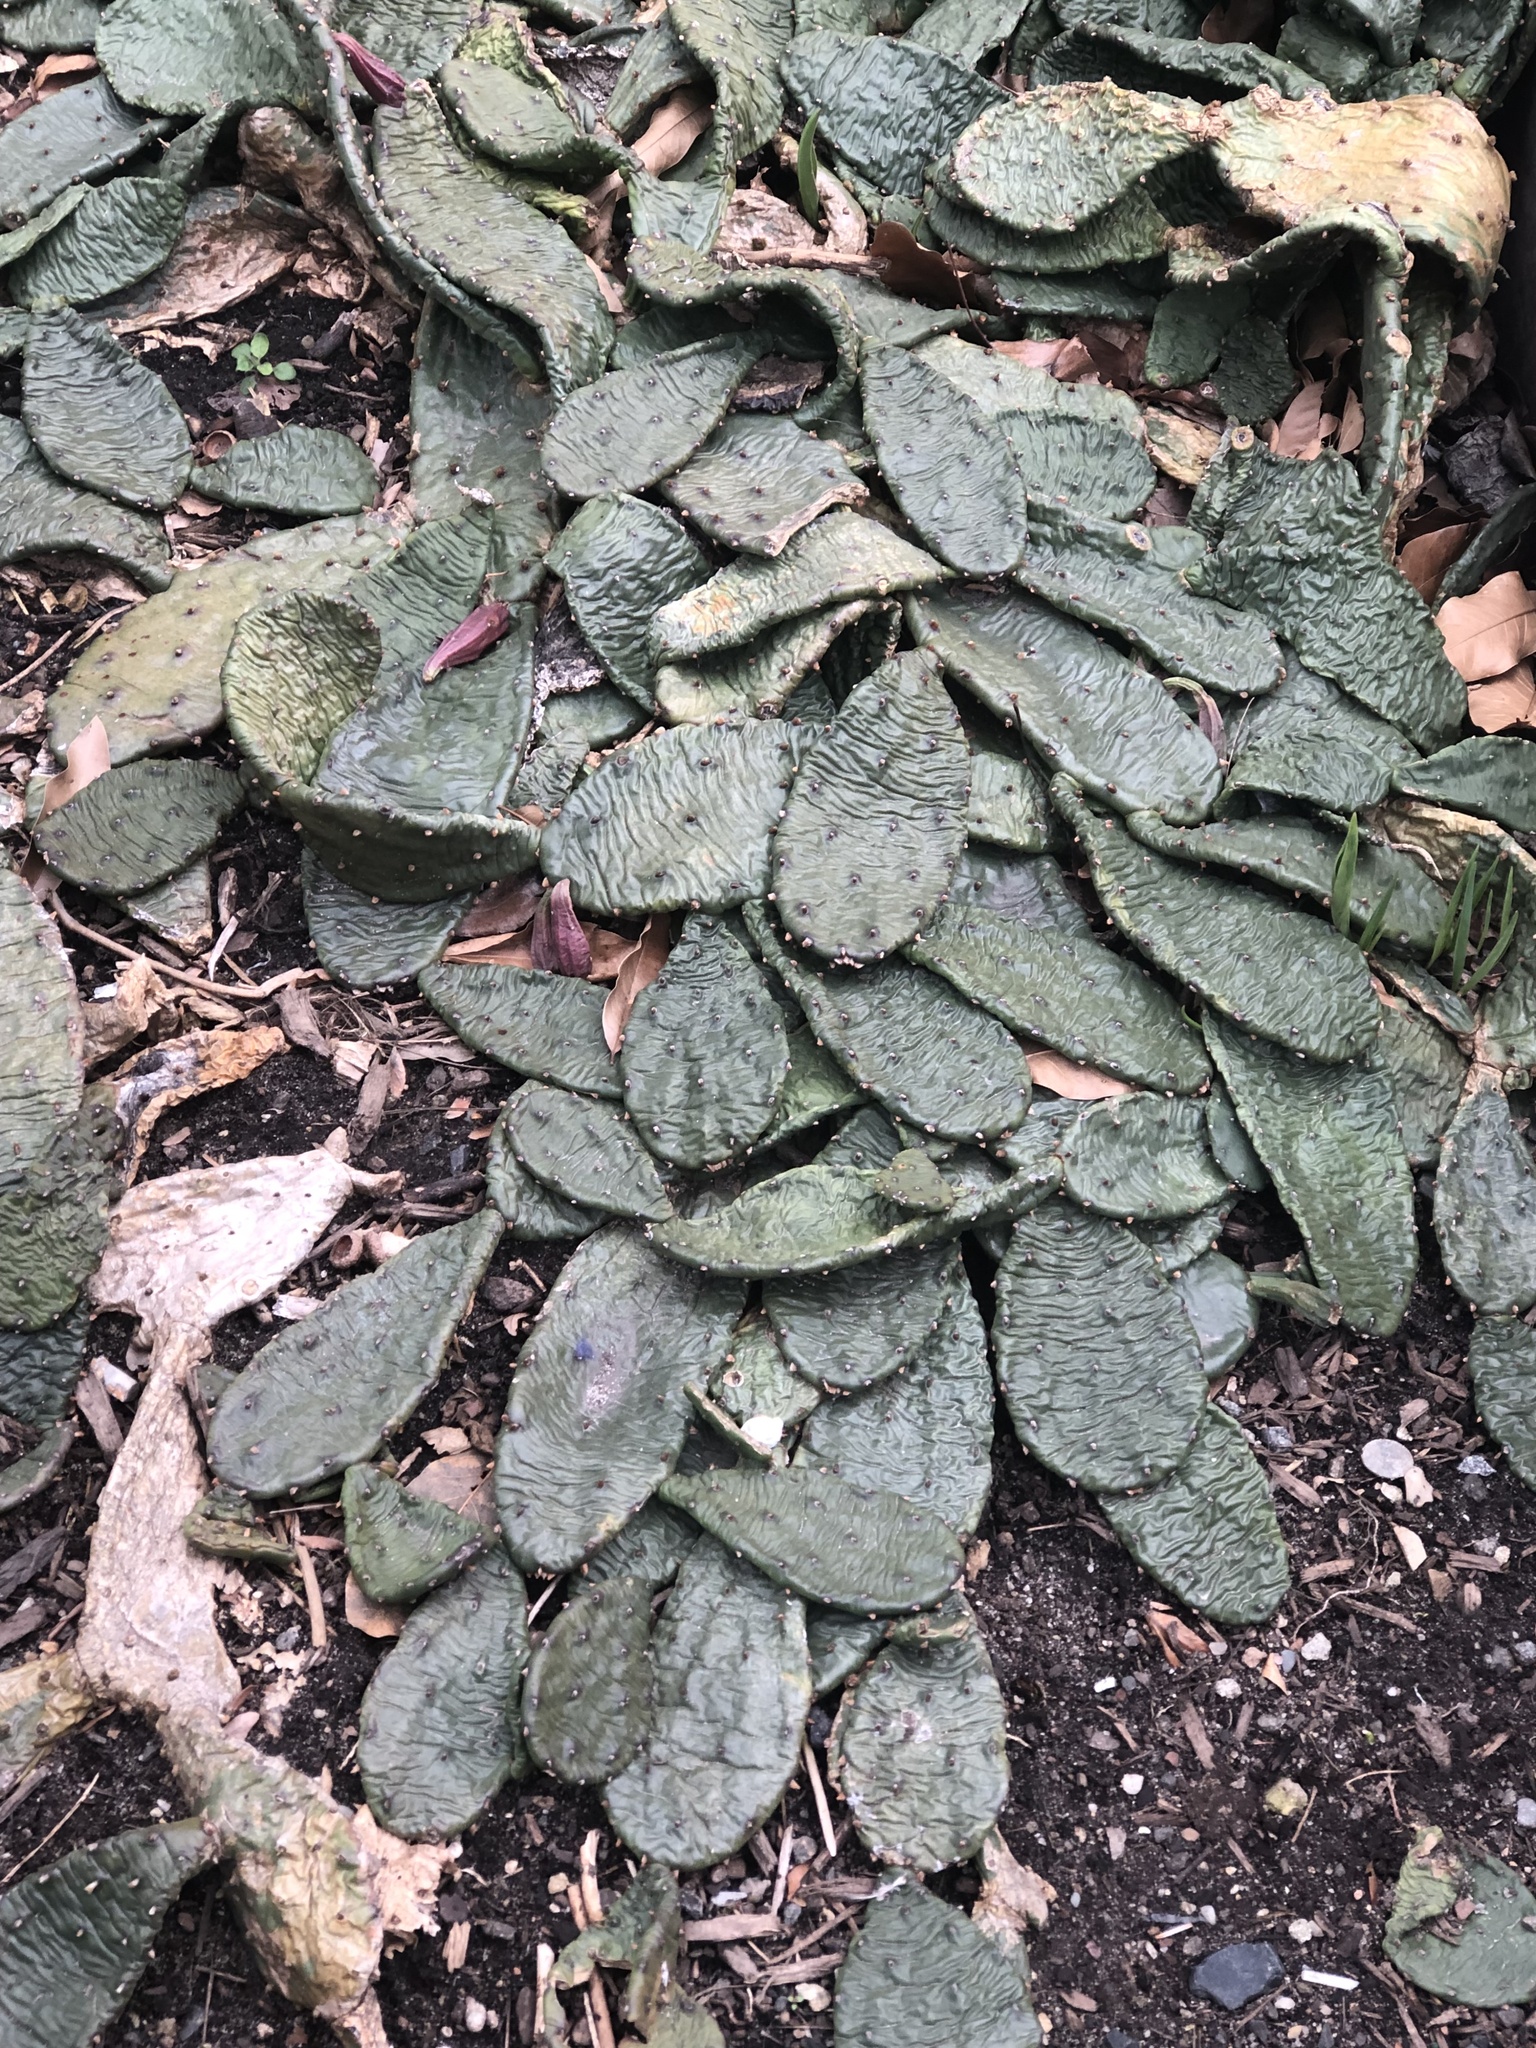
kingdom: Plantae
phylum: Tracheophyta
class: Magnoliopsida
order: Caryophyllales
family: Cactaceae
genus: Opuntia
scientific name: Opuntia humifusa
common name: Eastern prickly-pear
